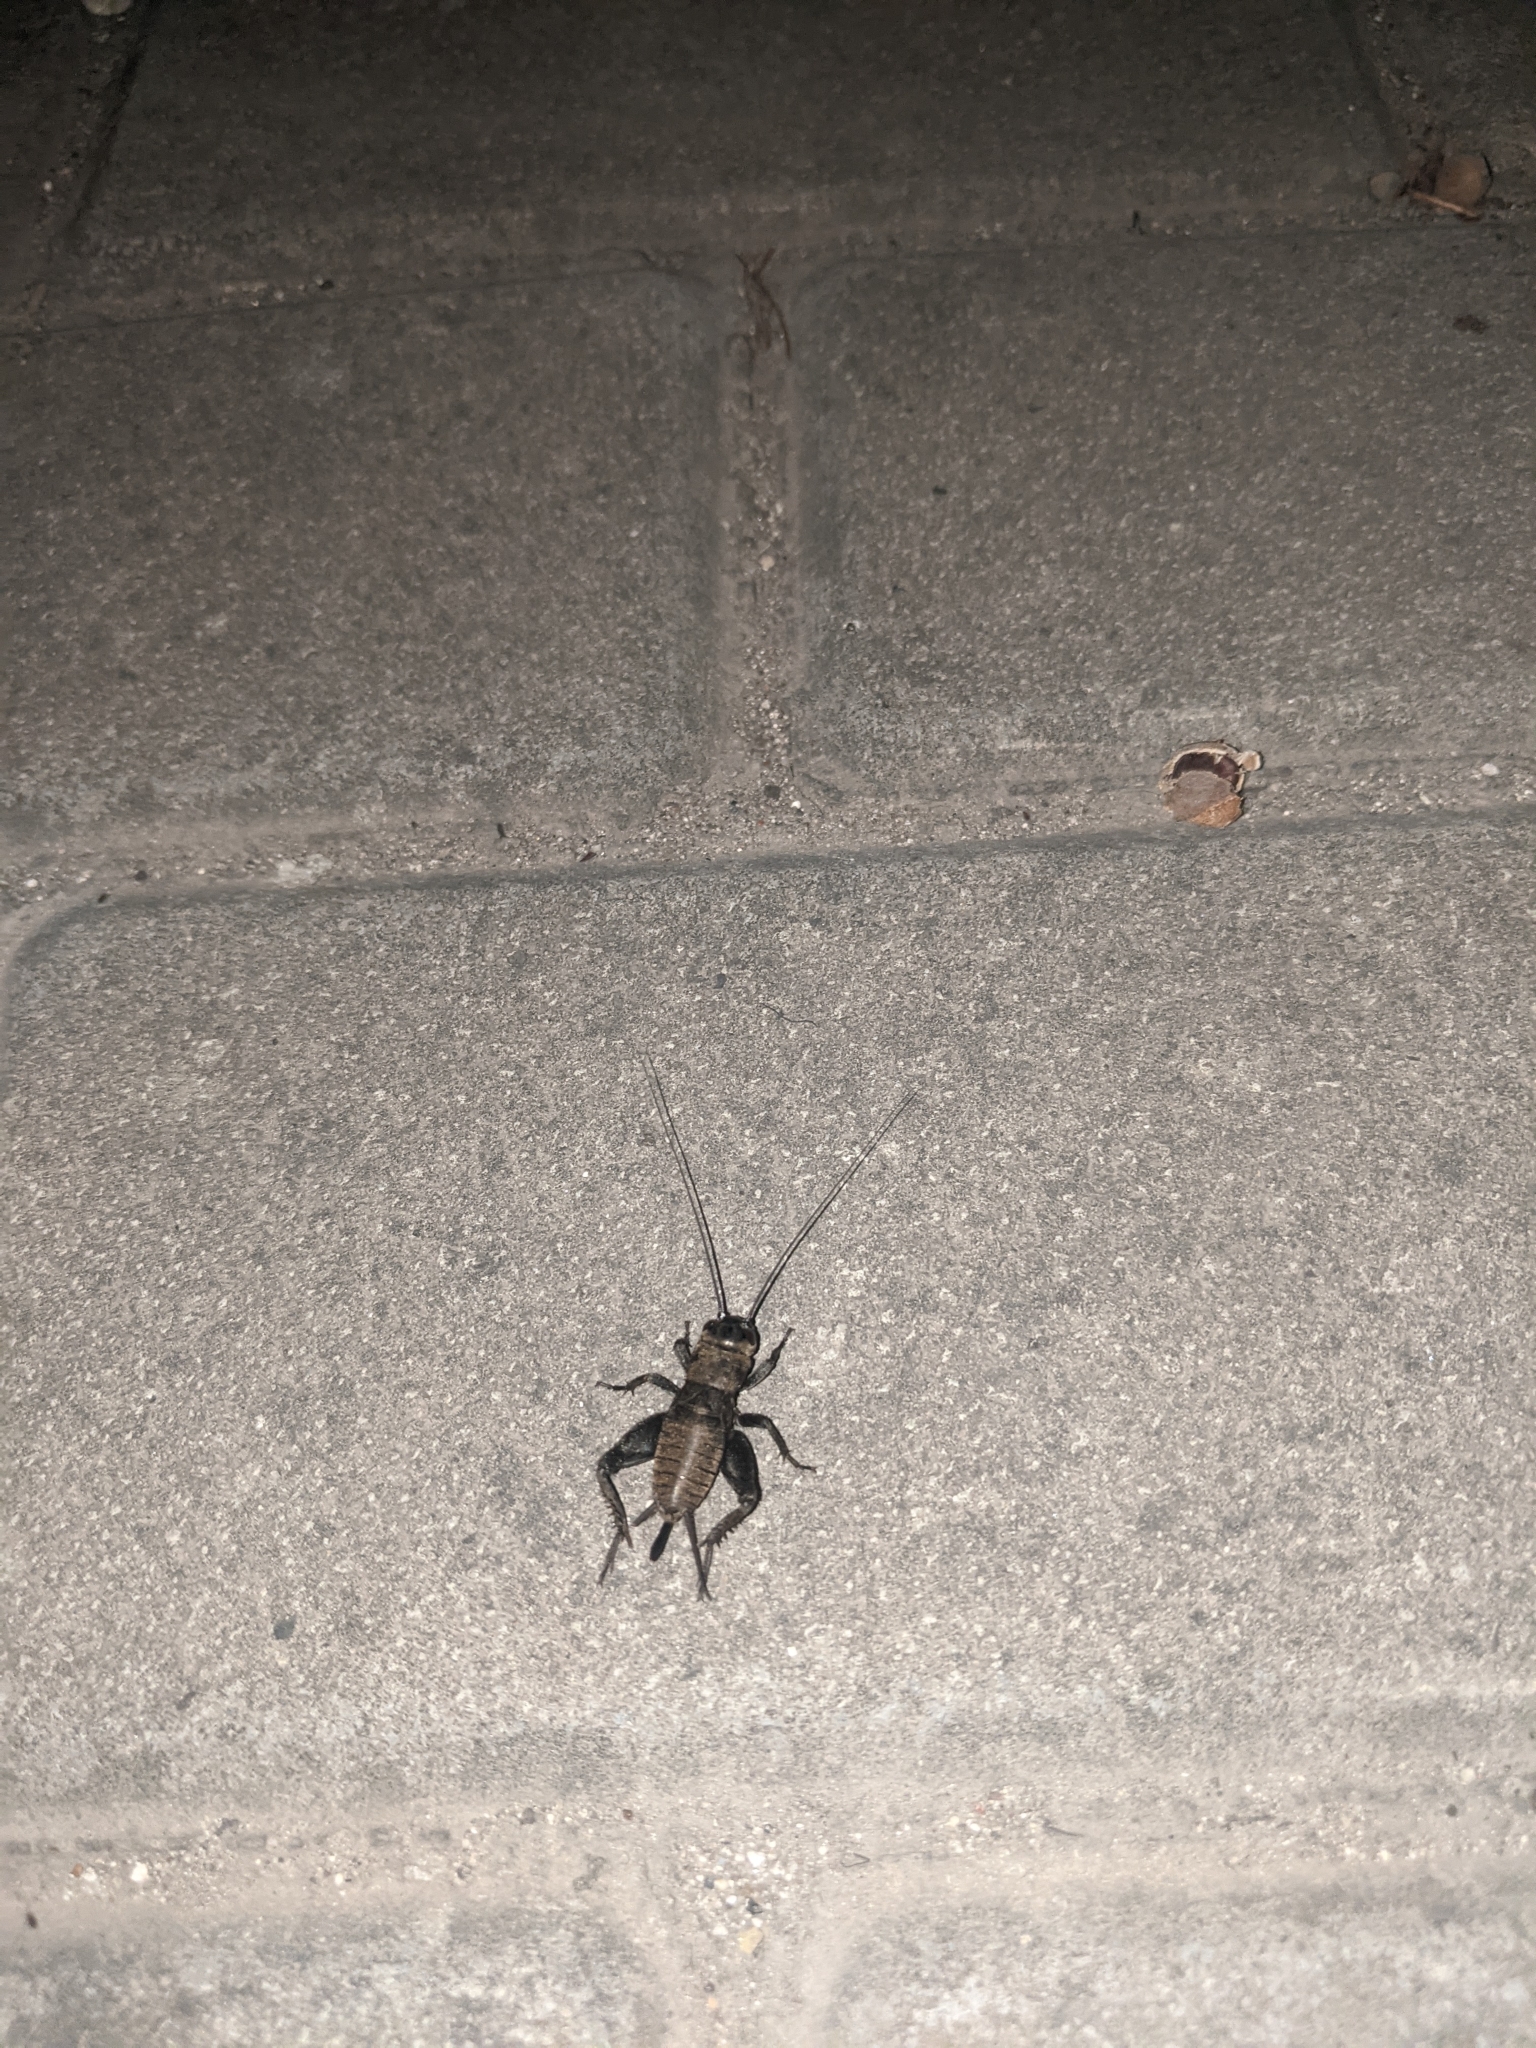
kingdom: Animalia
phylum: Arthropoda
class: Insecta
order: Orthoptera
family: Gryllidae
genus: Melanogryllus
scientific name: Melanogryllus desertus
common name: Desert cricket
